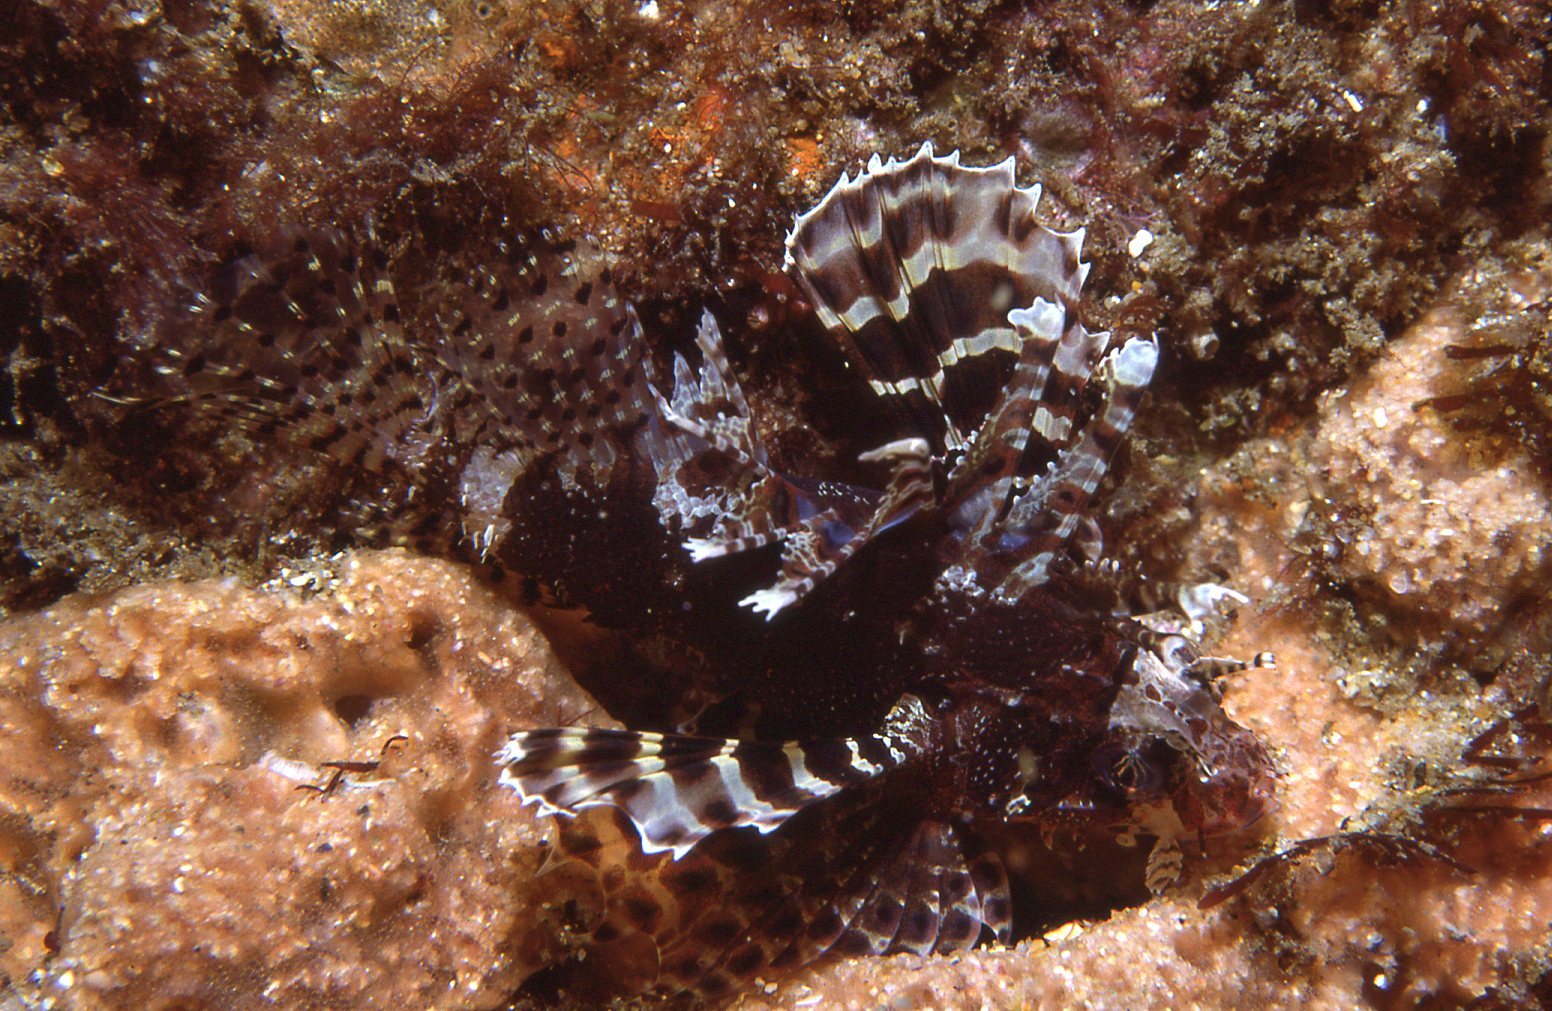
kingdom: Animalia
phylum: Chordata
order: Scorpaeniformes
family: Scorpaenidae
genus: Dendrochirus
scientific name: Dendrochirus brachypterus
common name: Shortfin turkeyfish
